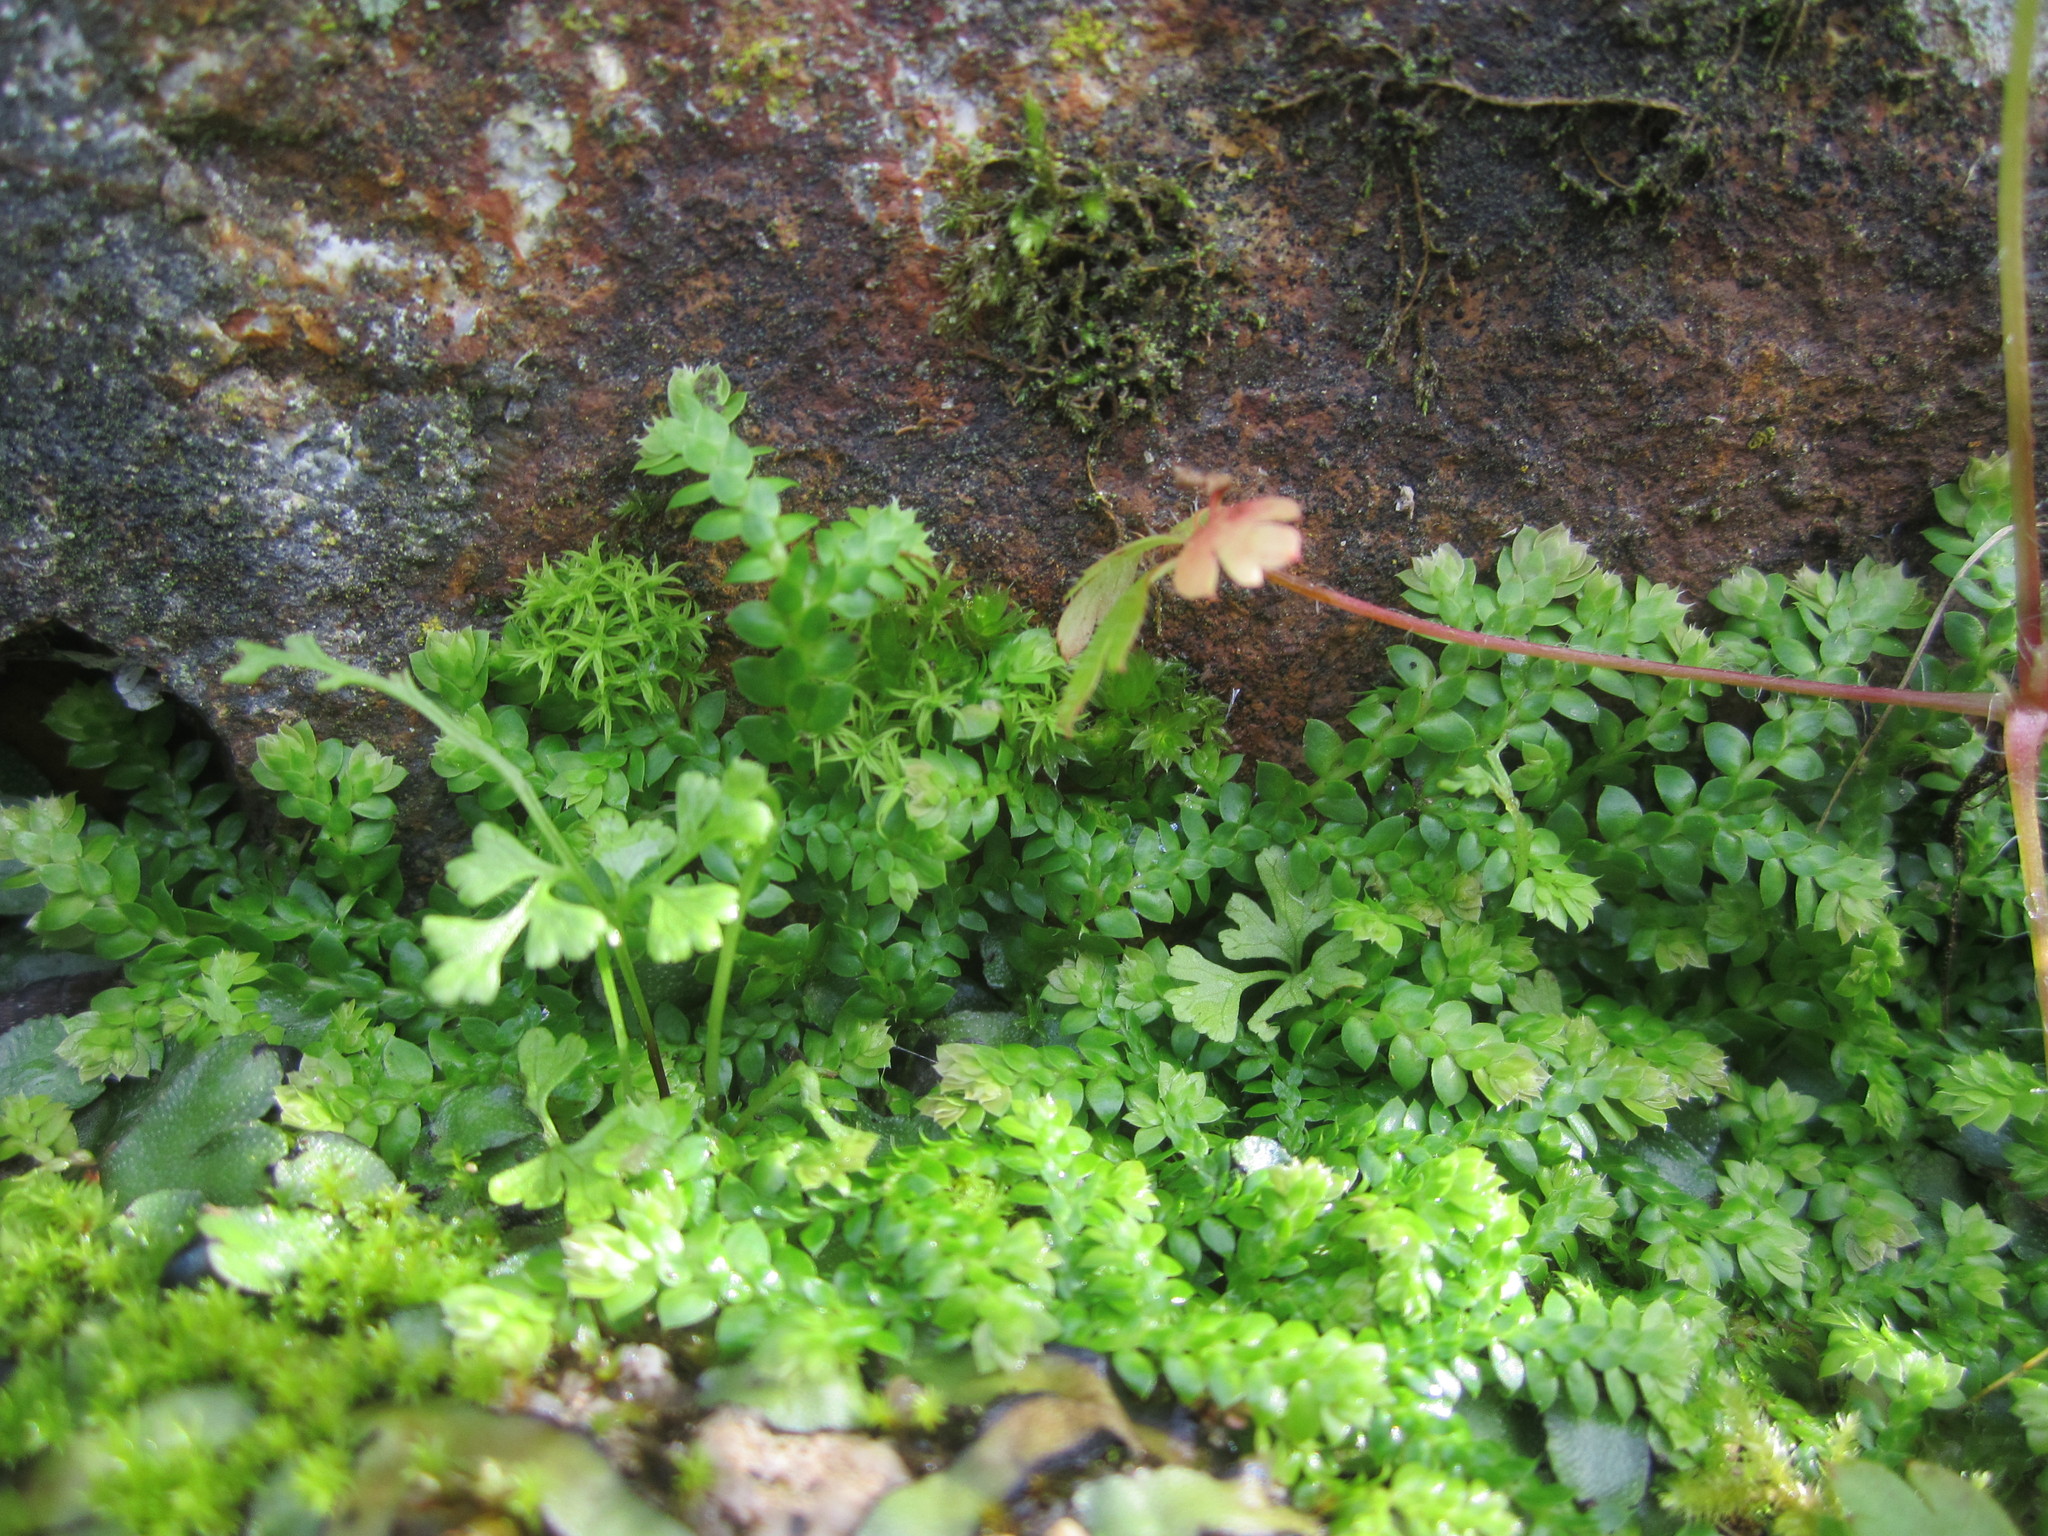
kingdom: Plantae
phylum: Tracheophyta
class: Lycopodiopsida
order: Selaginellales
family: Selaginellaceae
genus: Selaginella
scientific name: Selaginella denticulata
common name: Toothed-leaved clubmoss
